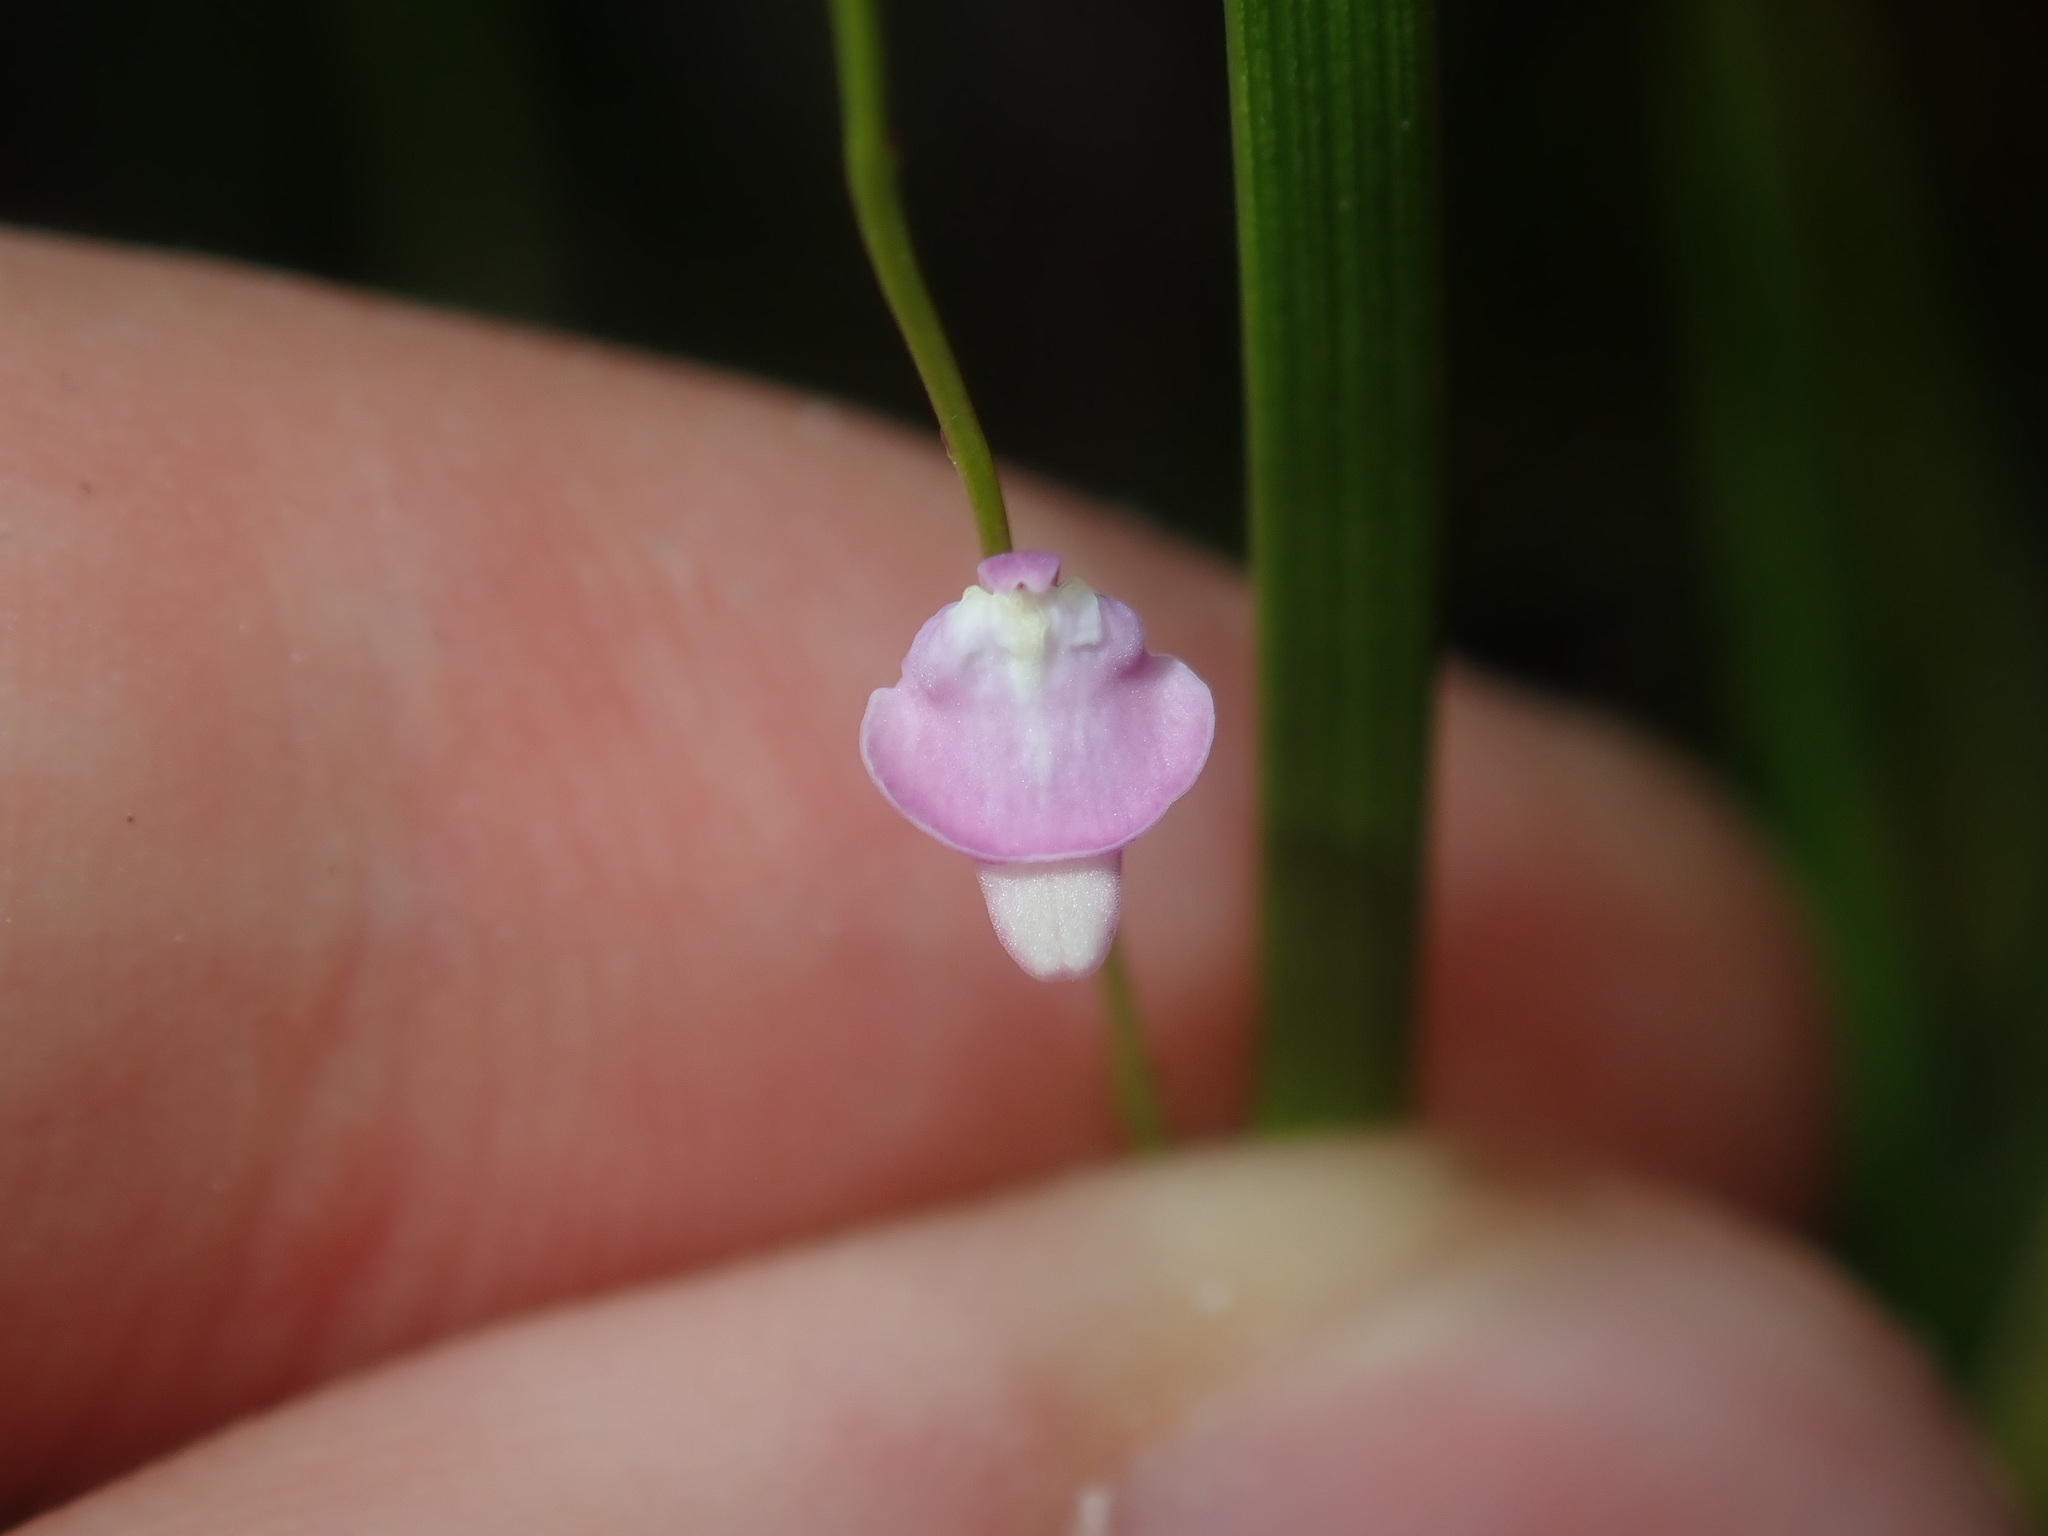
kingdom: Plantae
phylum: Tracheophyta
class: Magnoliopsida
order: Lamiales
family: Lentibulariaceae
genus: Utricularia
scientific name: Utricularia lateriflora
